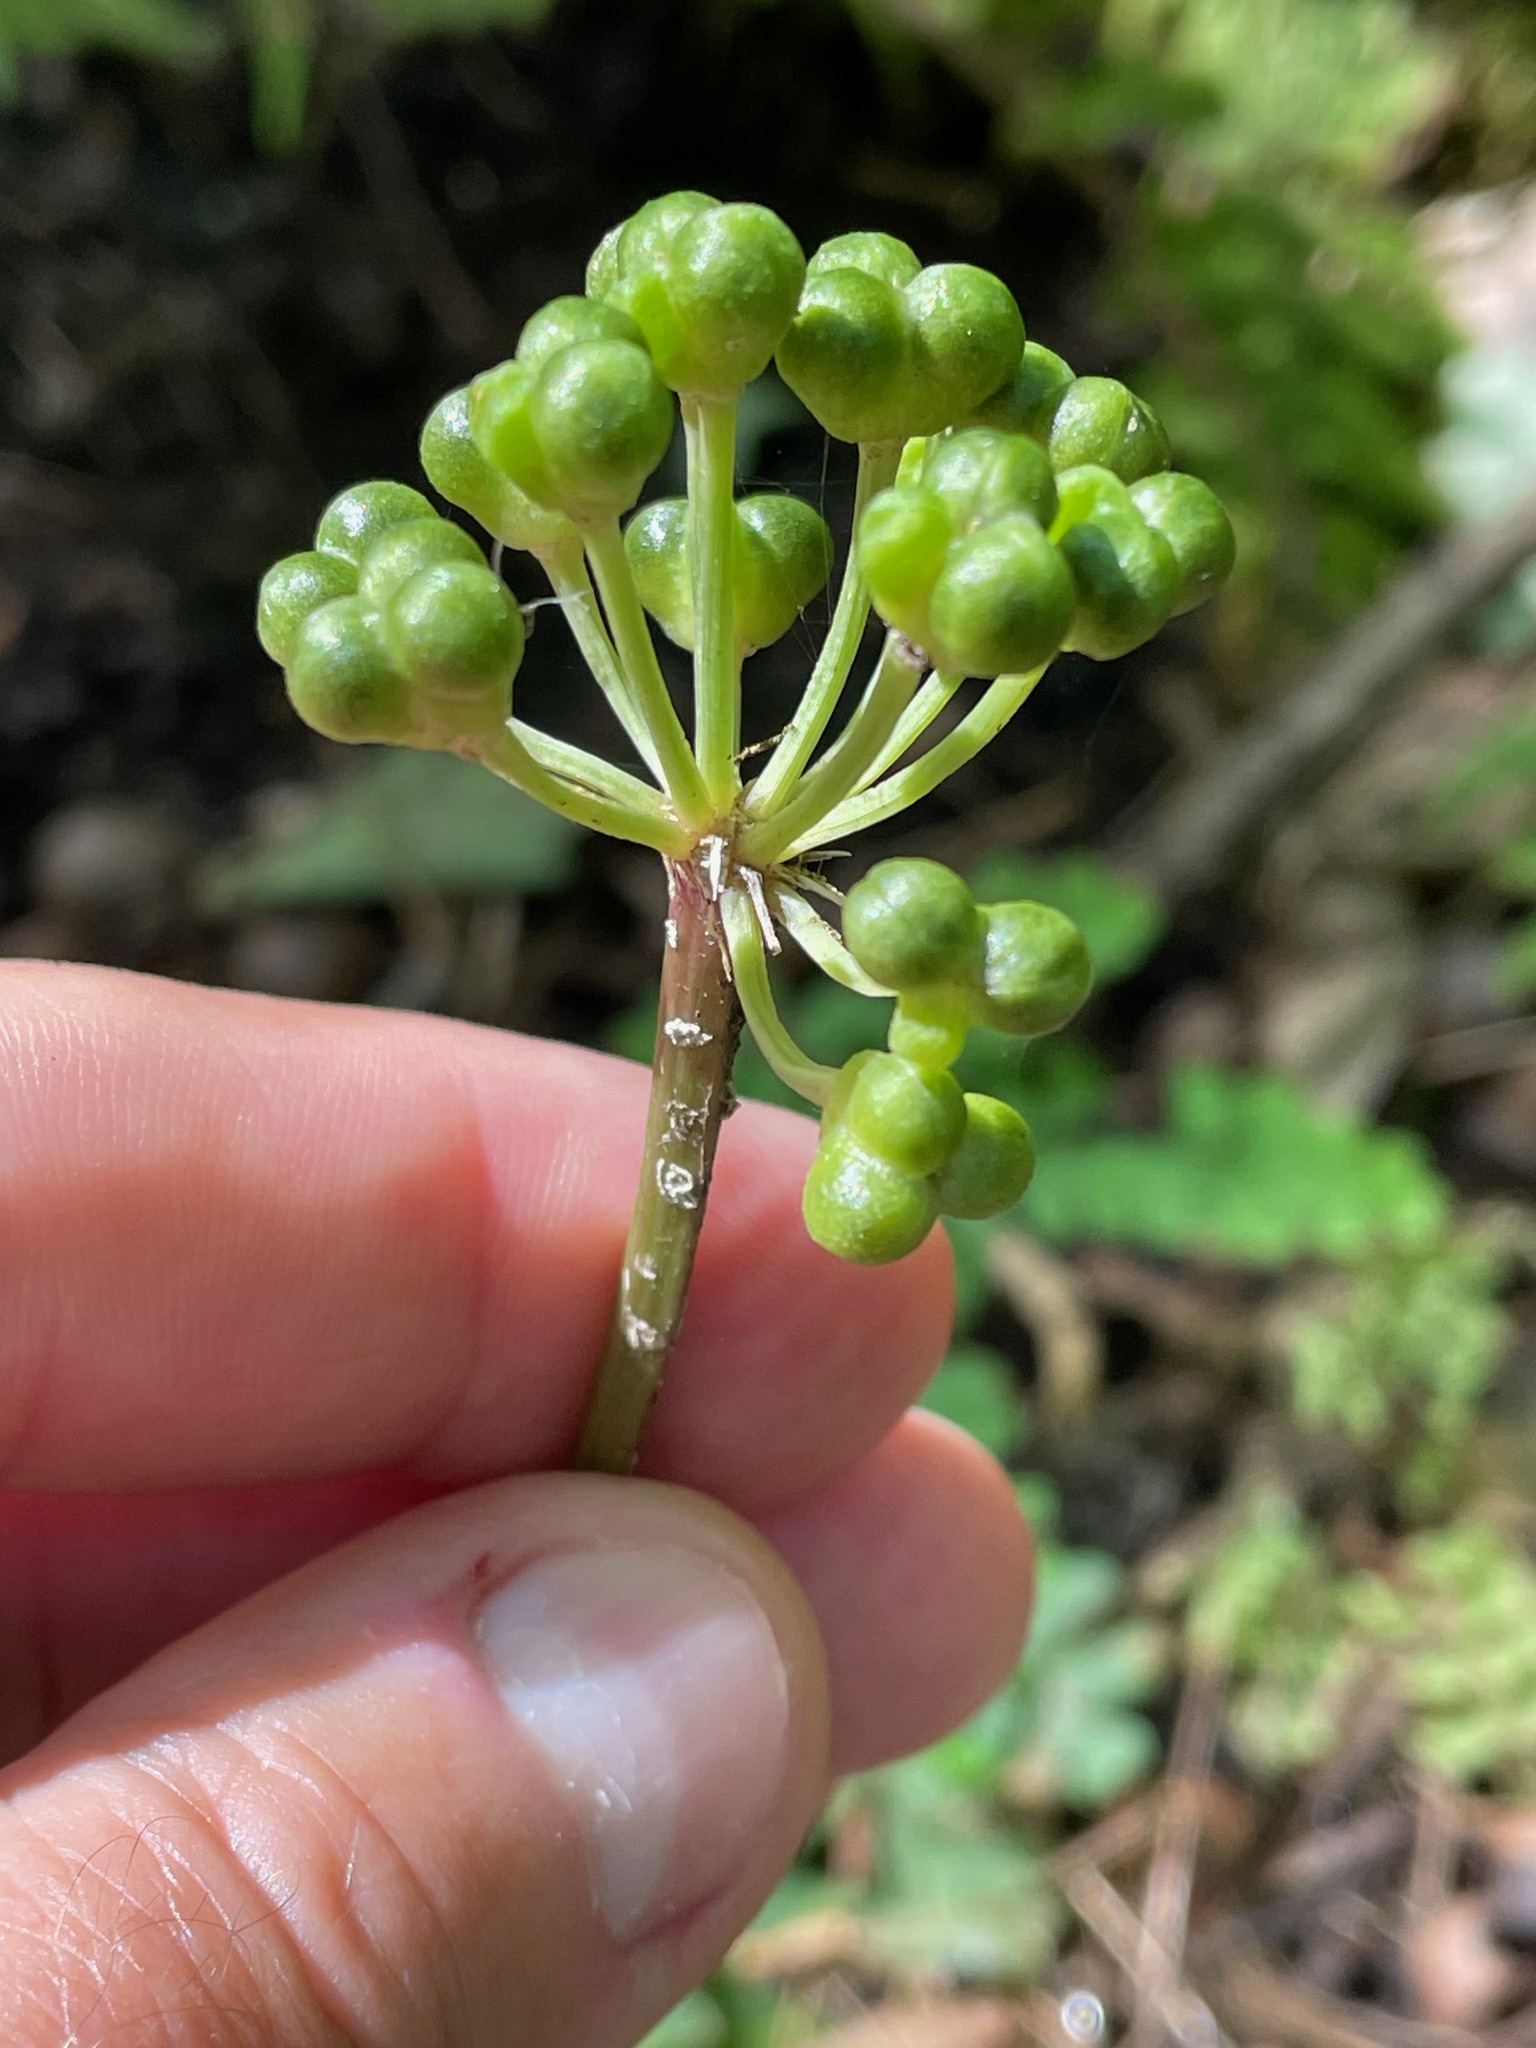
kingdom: Plantae
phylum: Tracheophyta
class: Liliopsida
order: Asparagales
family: Amaryllidaceae
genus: Allium
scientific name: Allium tricoccum
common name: Ramp
